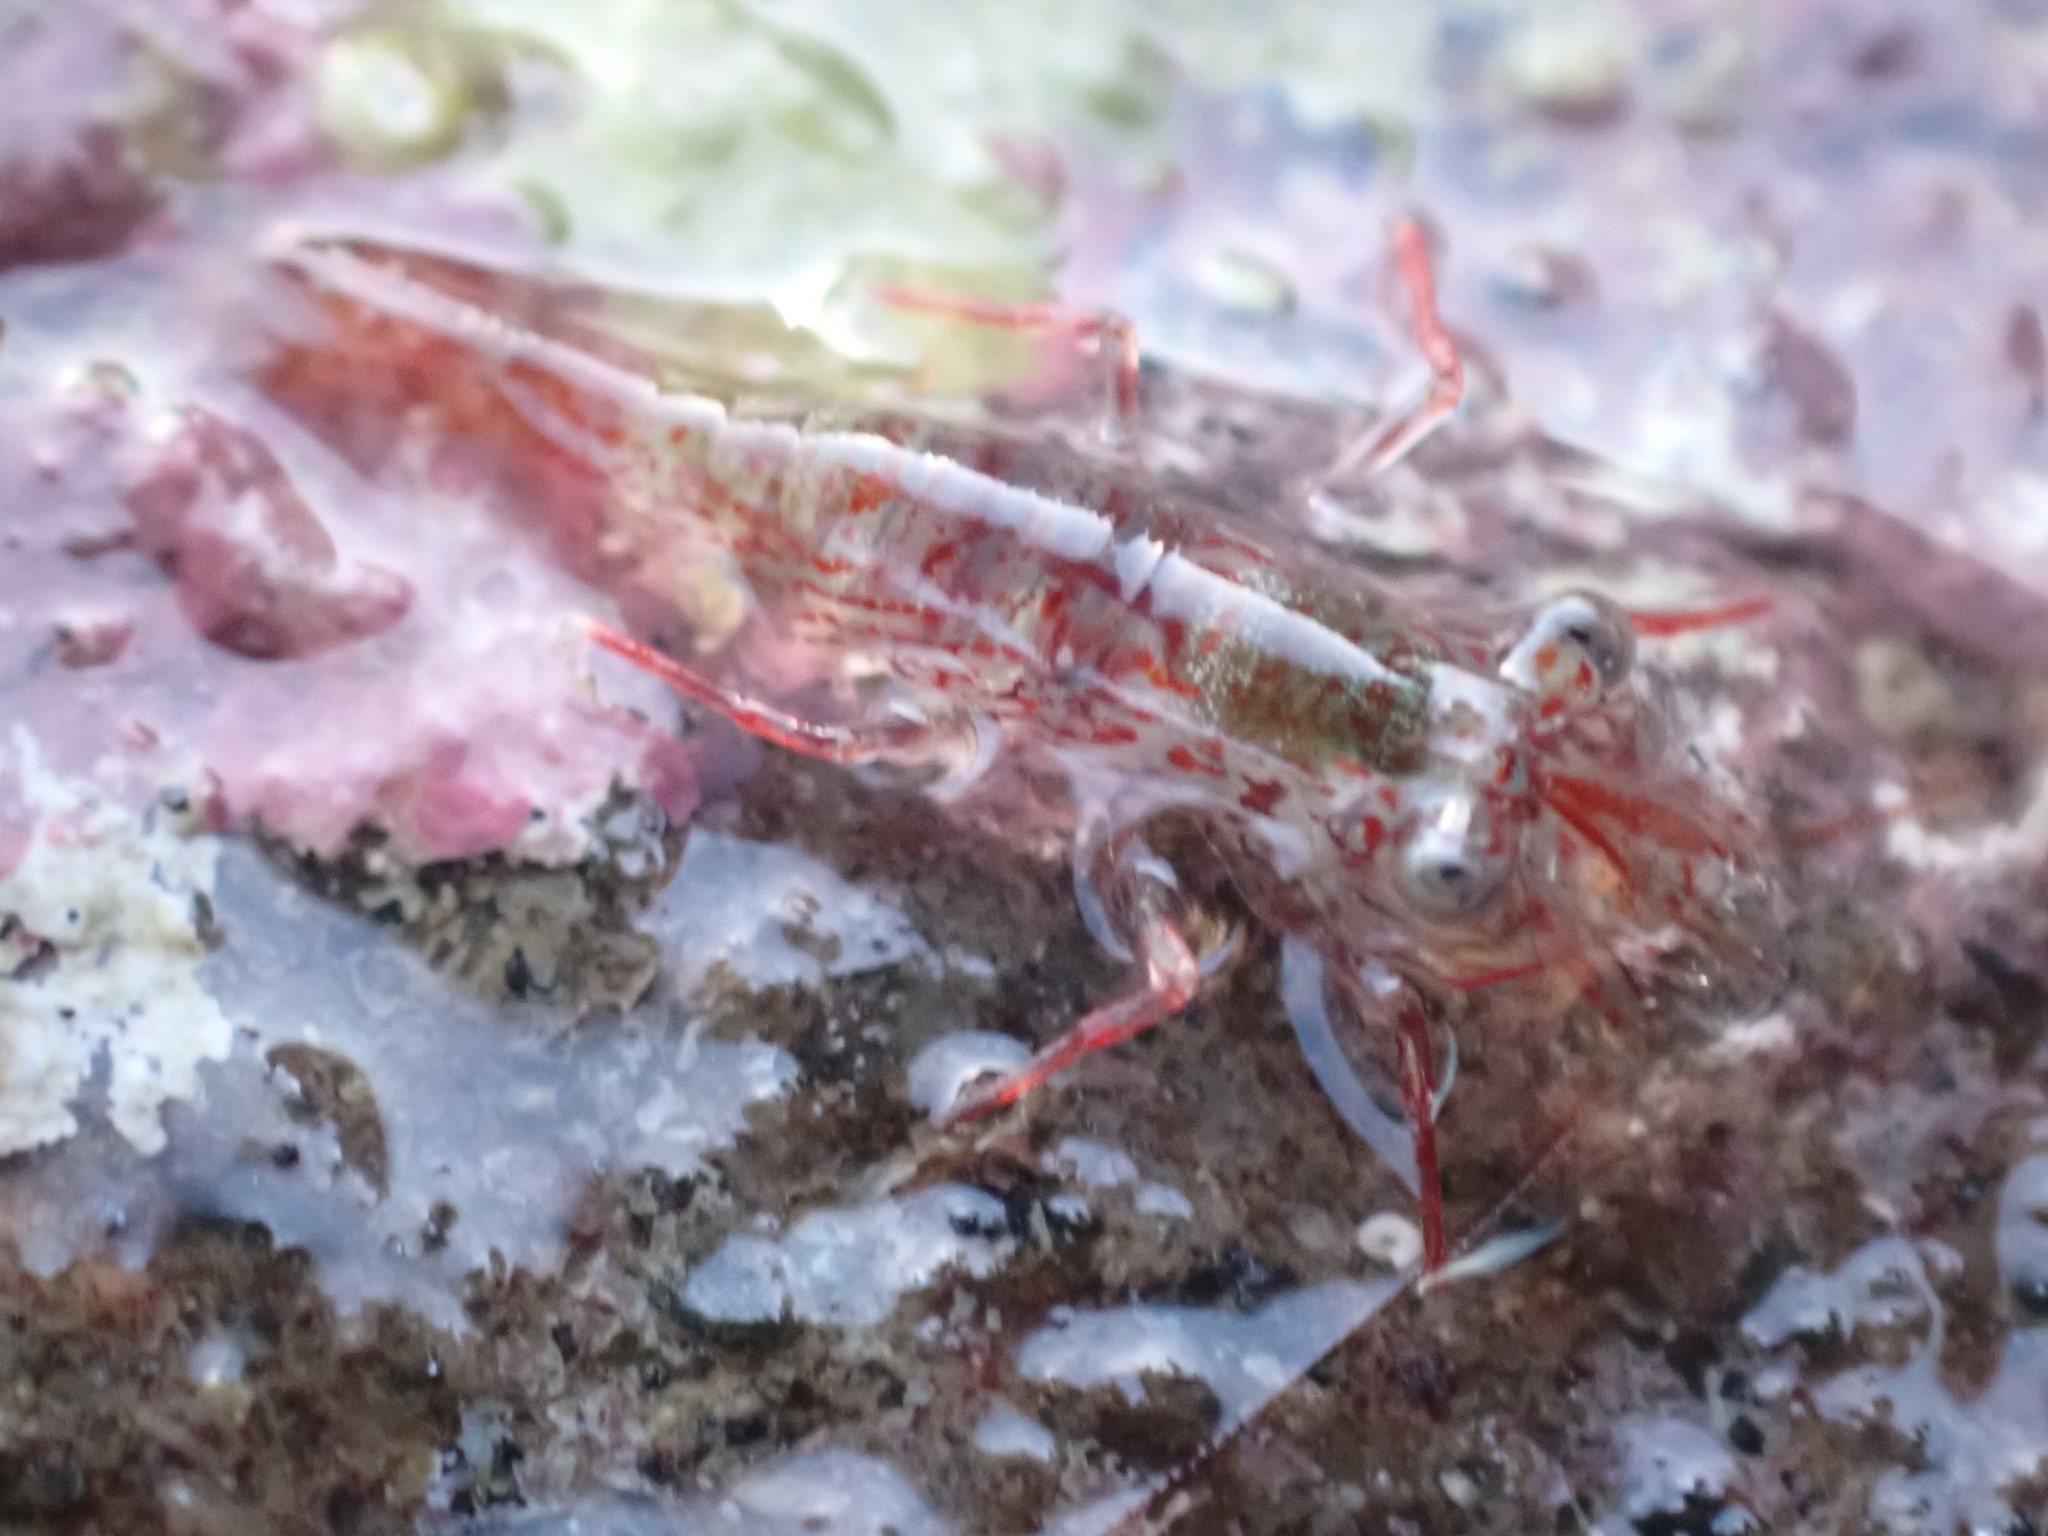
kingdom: Animalia
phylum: Arthropoda
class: Malacostraca
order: Decapoda
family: Hippolytidae
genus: Alope
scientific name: Alope spinifrons
